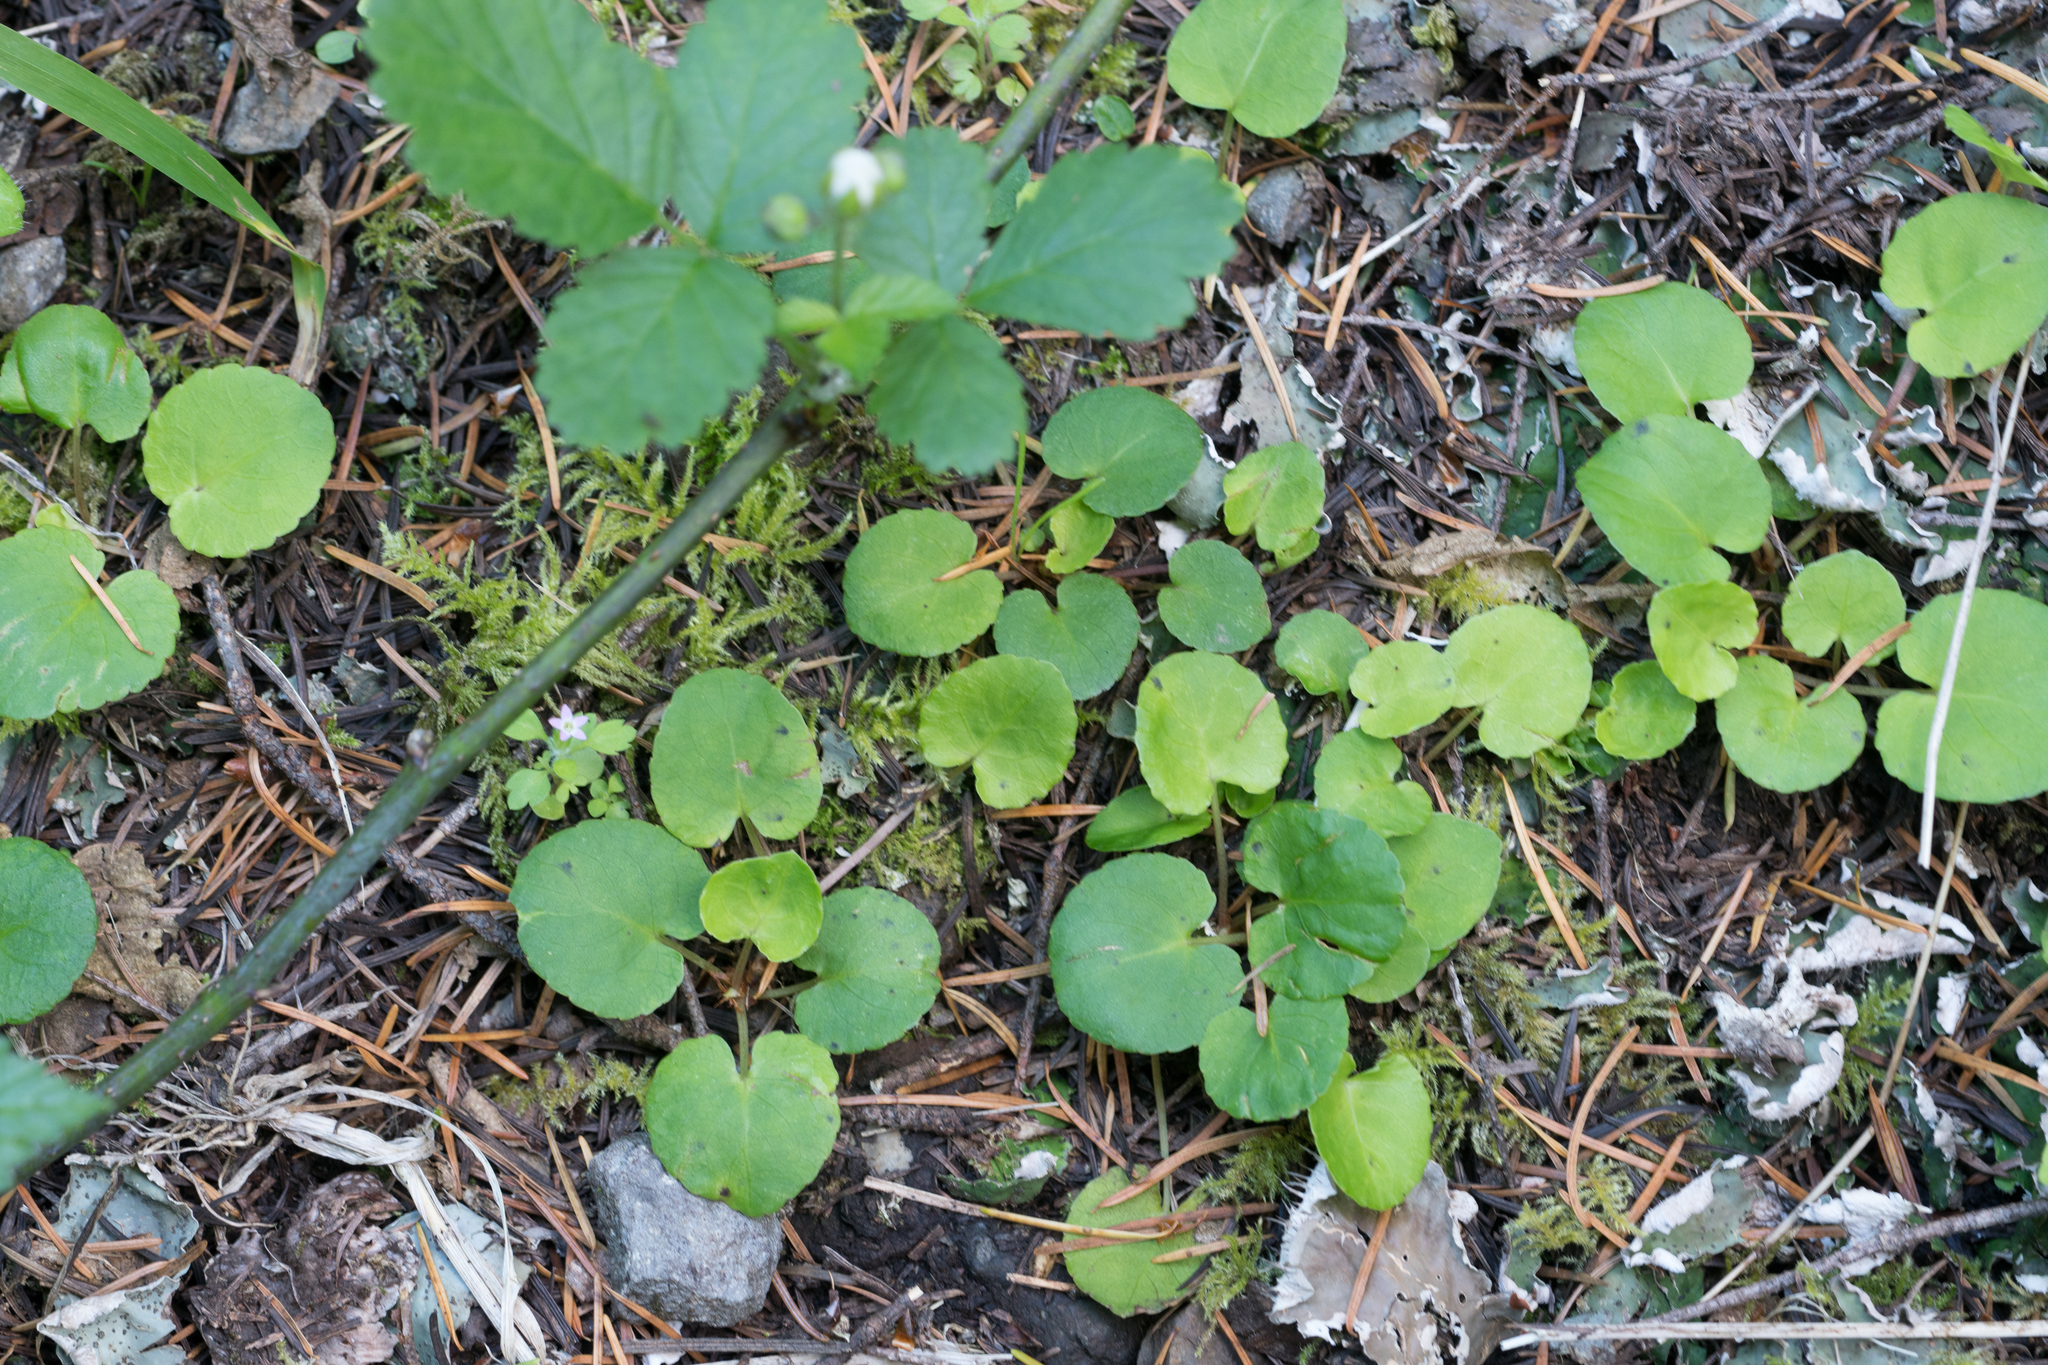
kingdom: Plantae
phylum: Tracheophyta
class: Magnoliopsida
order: Malpighiales
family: Violaceae
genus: Viola
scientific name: Viola sempervirens
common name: Evergreen violet
